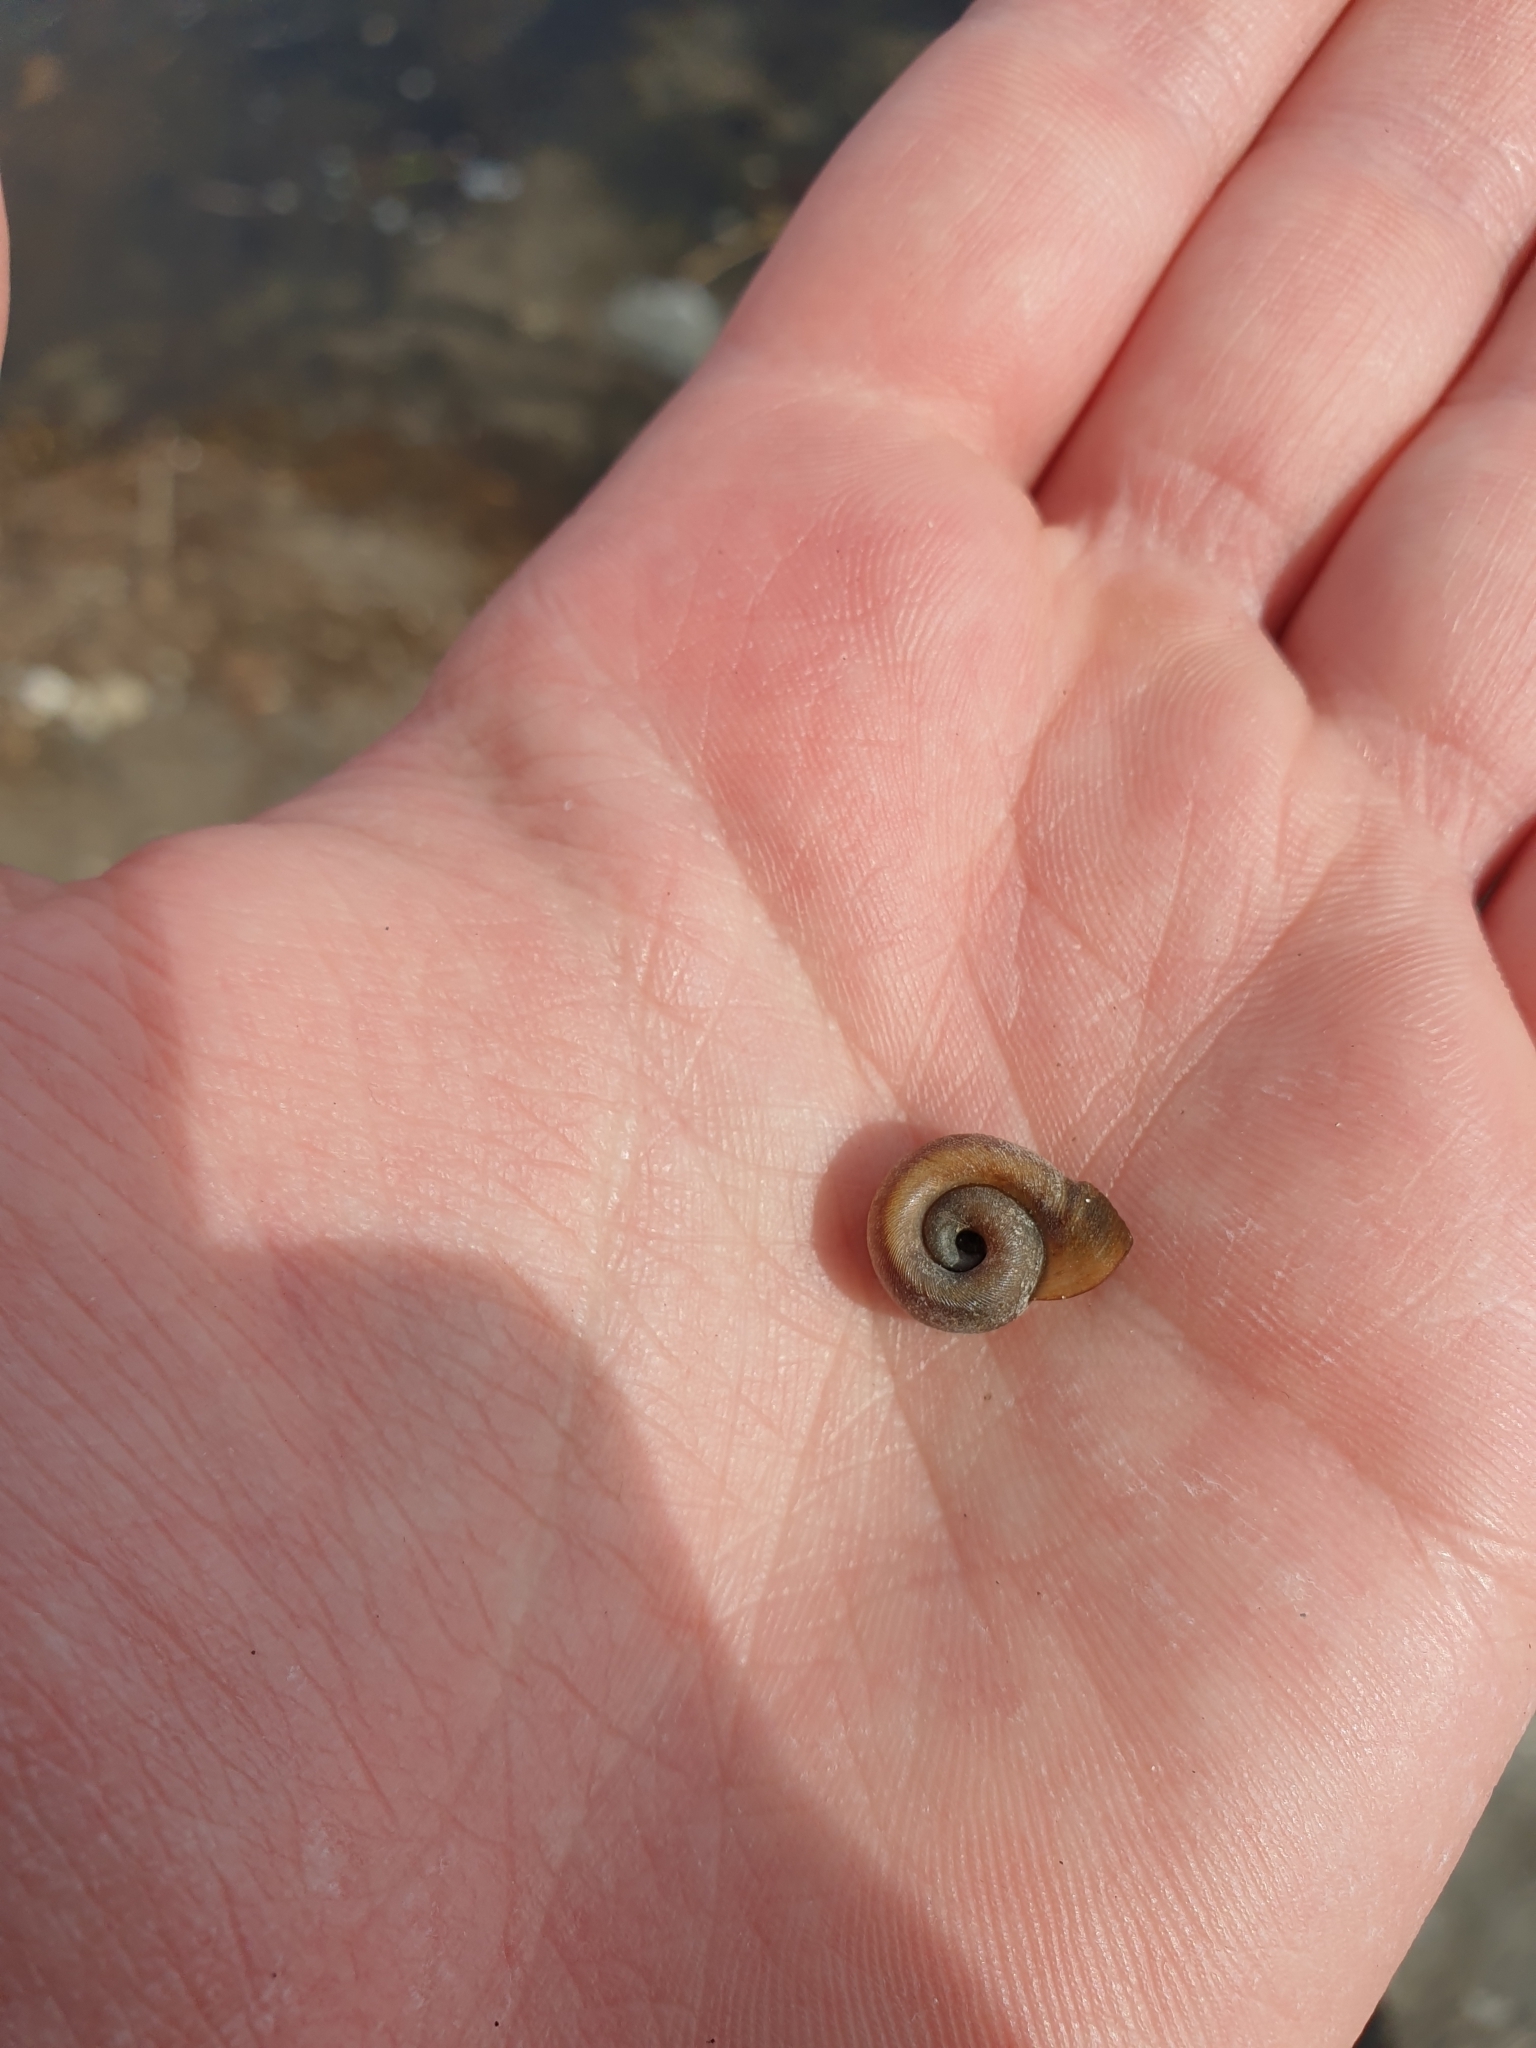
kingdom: Animalia
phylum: Mollusca
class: Gastropoda
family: Planorbidae
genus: Planorbella
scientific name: Planorbella trivolvis
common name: Marsh rams-horn
